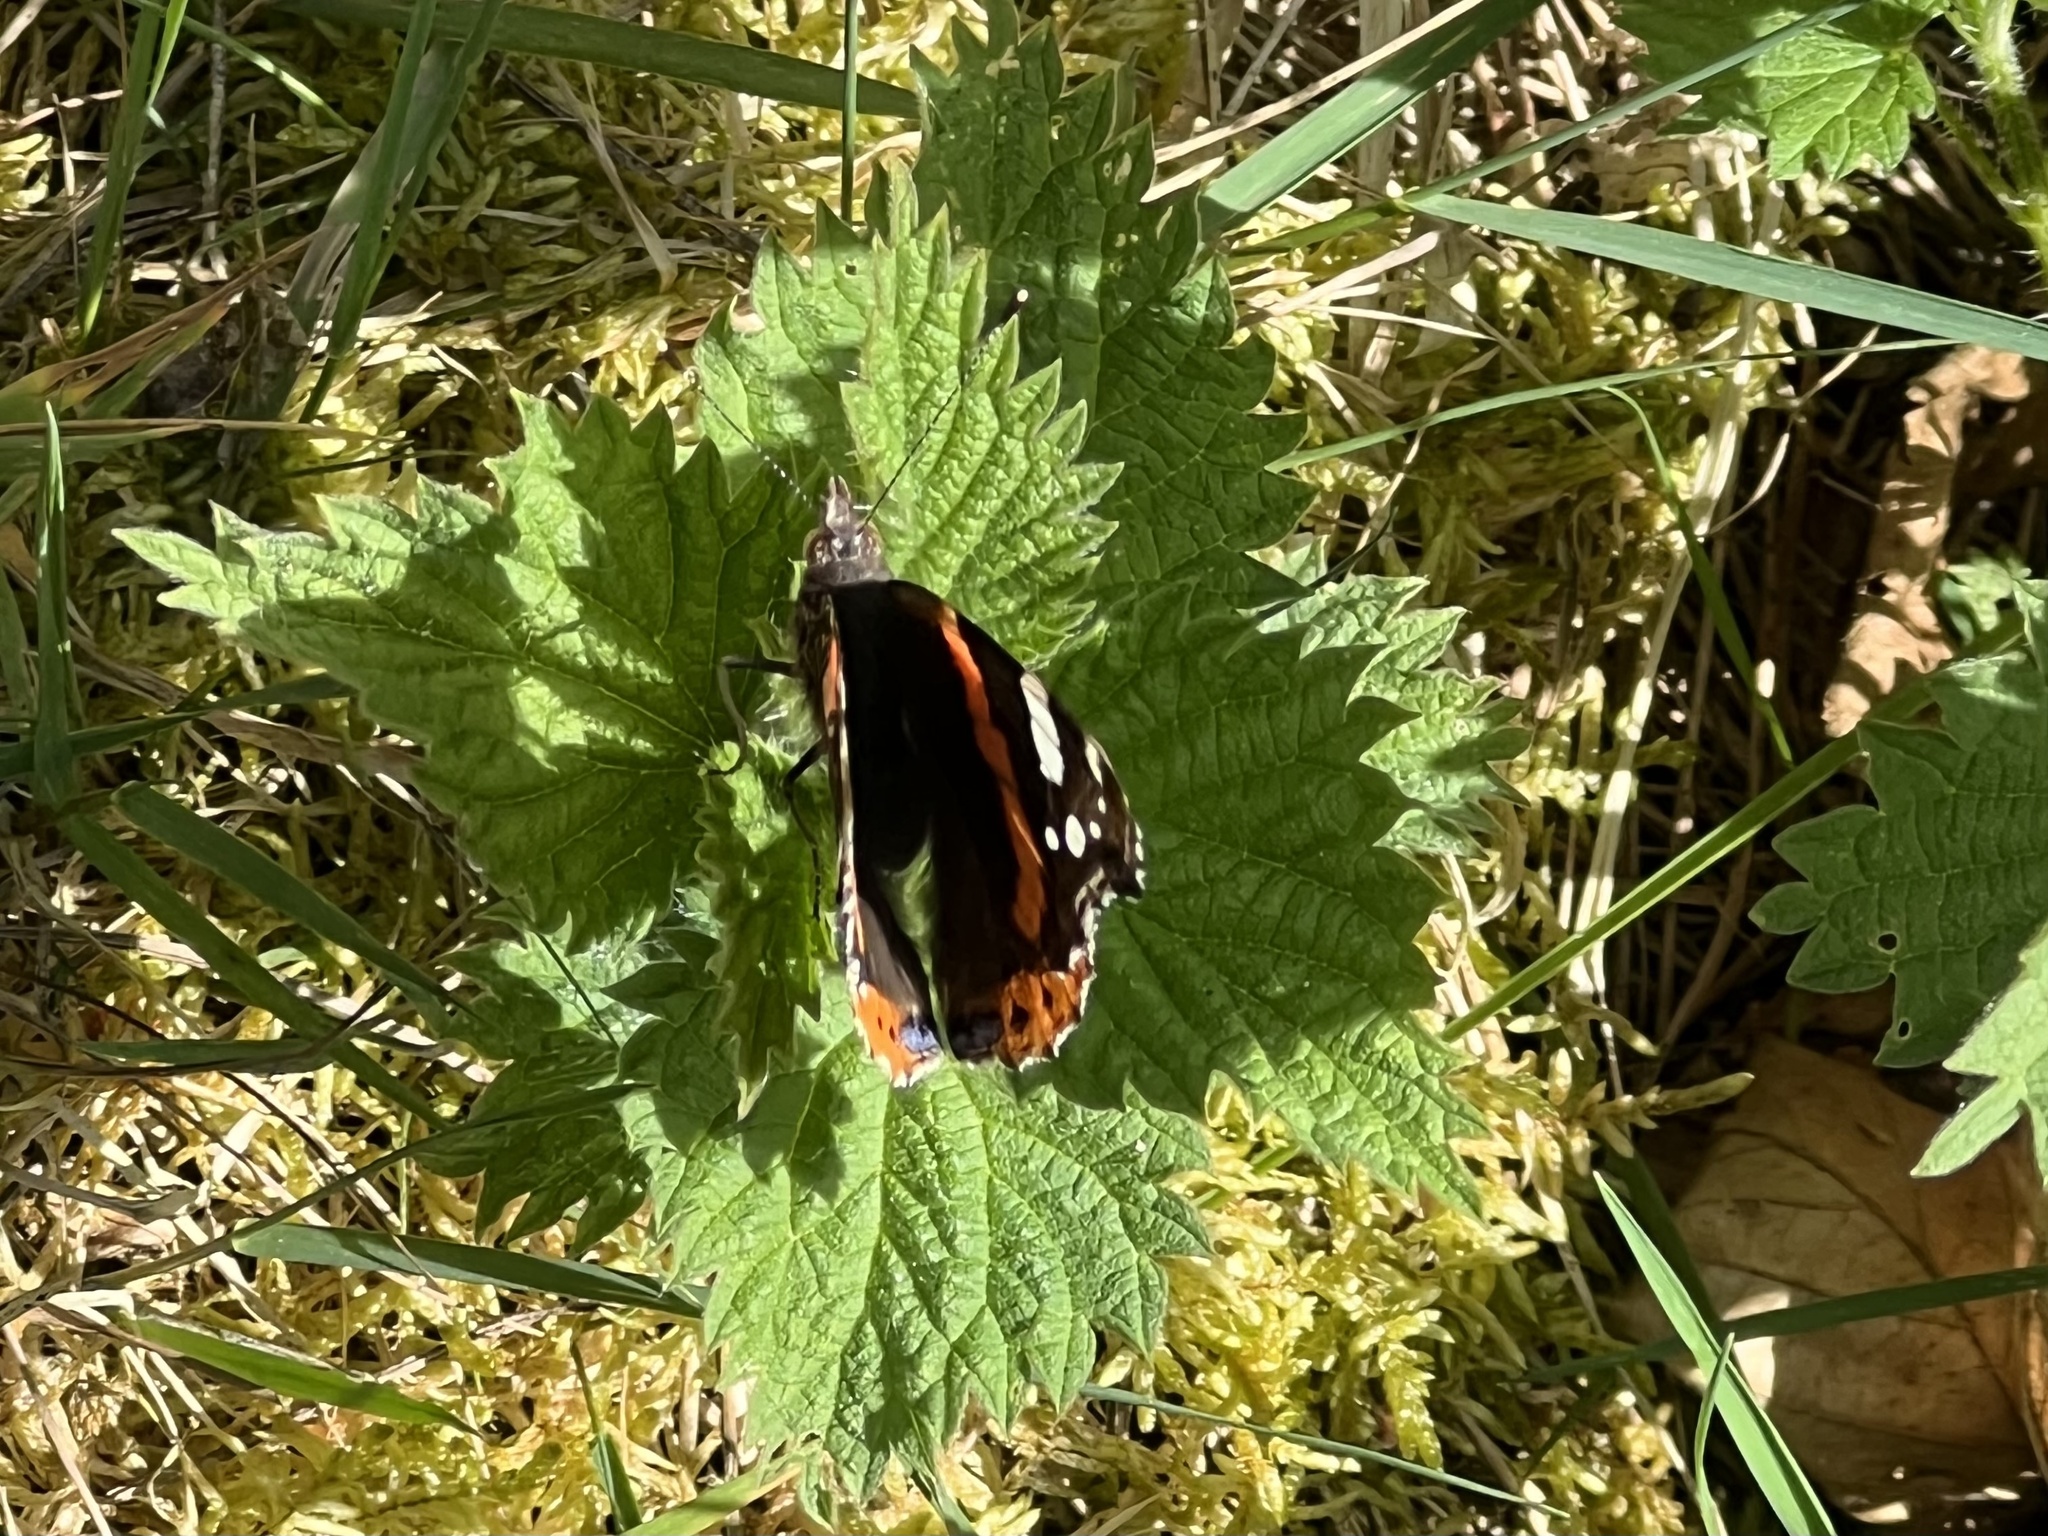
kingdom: Animalia
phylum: Arthropoda
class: Insecta
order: Lepidoptera
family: Nymphalidae
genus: Vanessa
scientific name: Vanessa atalanta
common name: Red admiral
